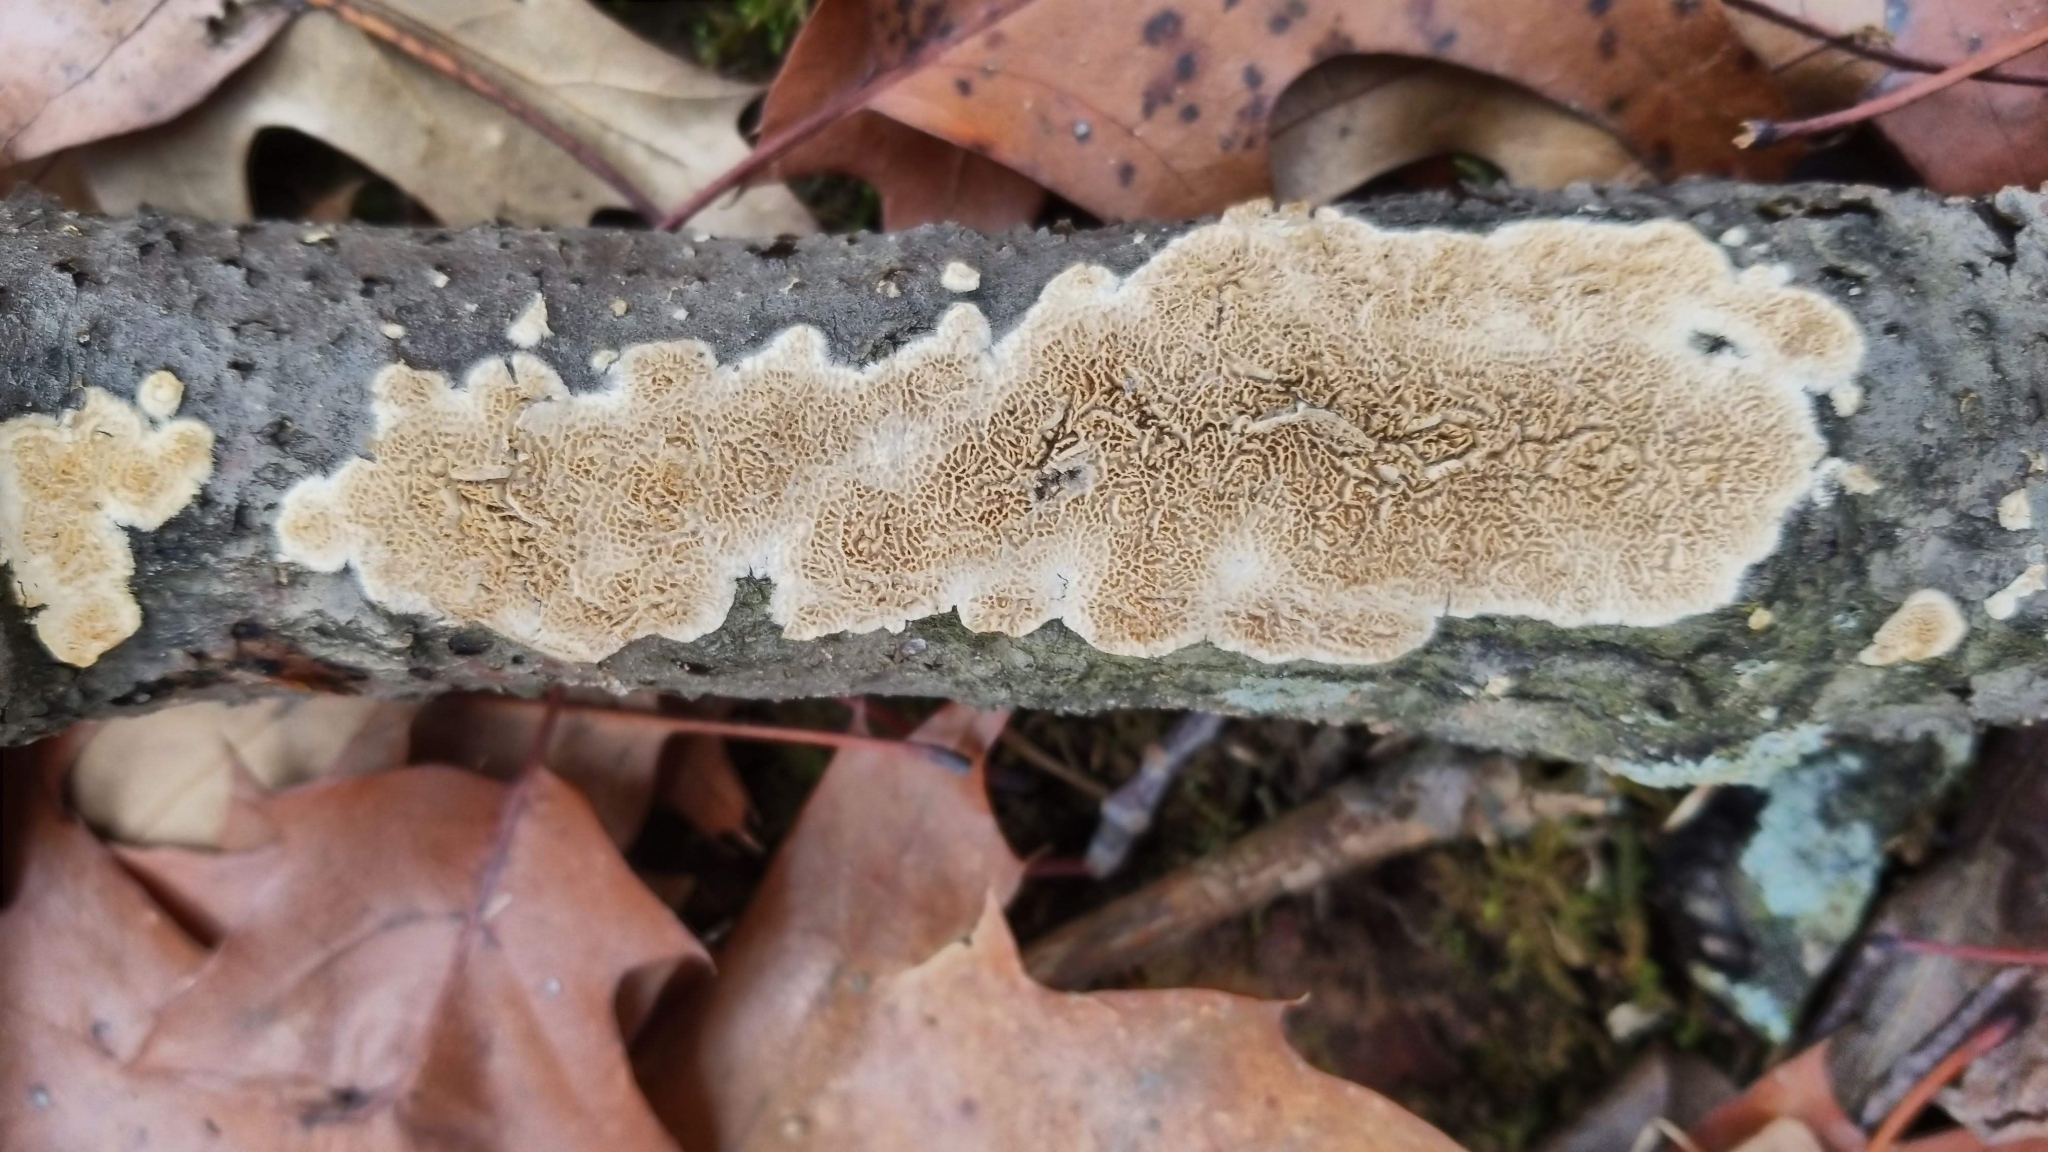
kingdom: Fungi
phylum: Basidiomycota
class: Agaricomycetes
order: Polyporales
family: Irpicaceae
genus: Irpex
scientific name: Irpex lacteus
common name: Milk-white toothed polypore
